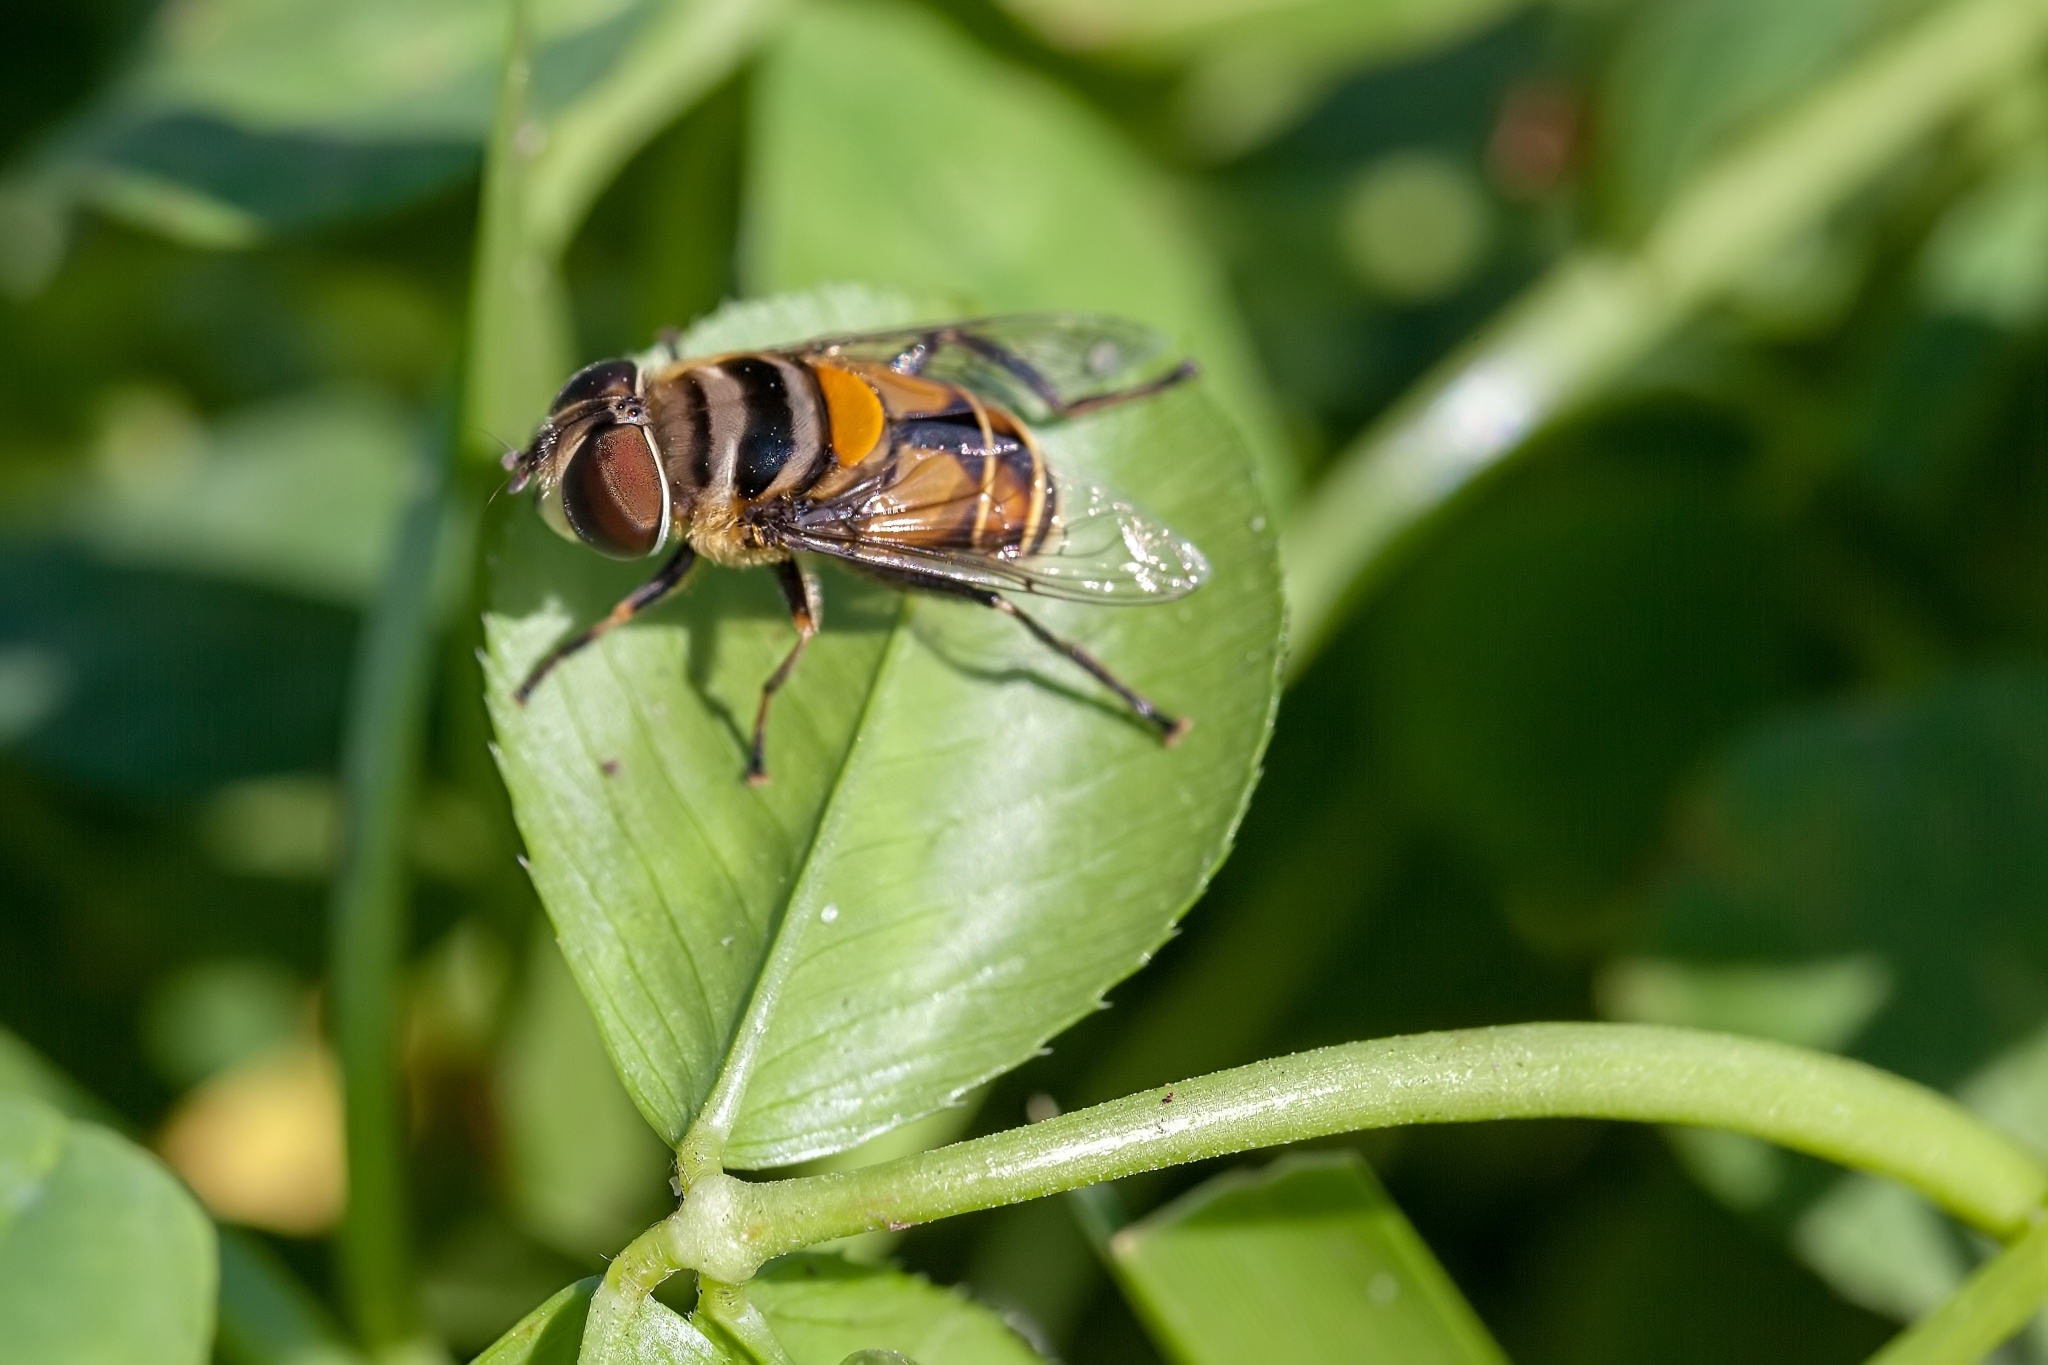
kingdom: Animalia
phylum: Arthropoda
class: Insecta
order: Diptera
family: Syrphidae
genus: Palpada
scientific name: Palpada agrorum
